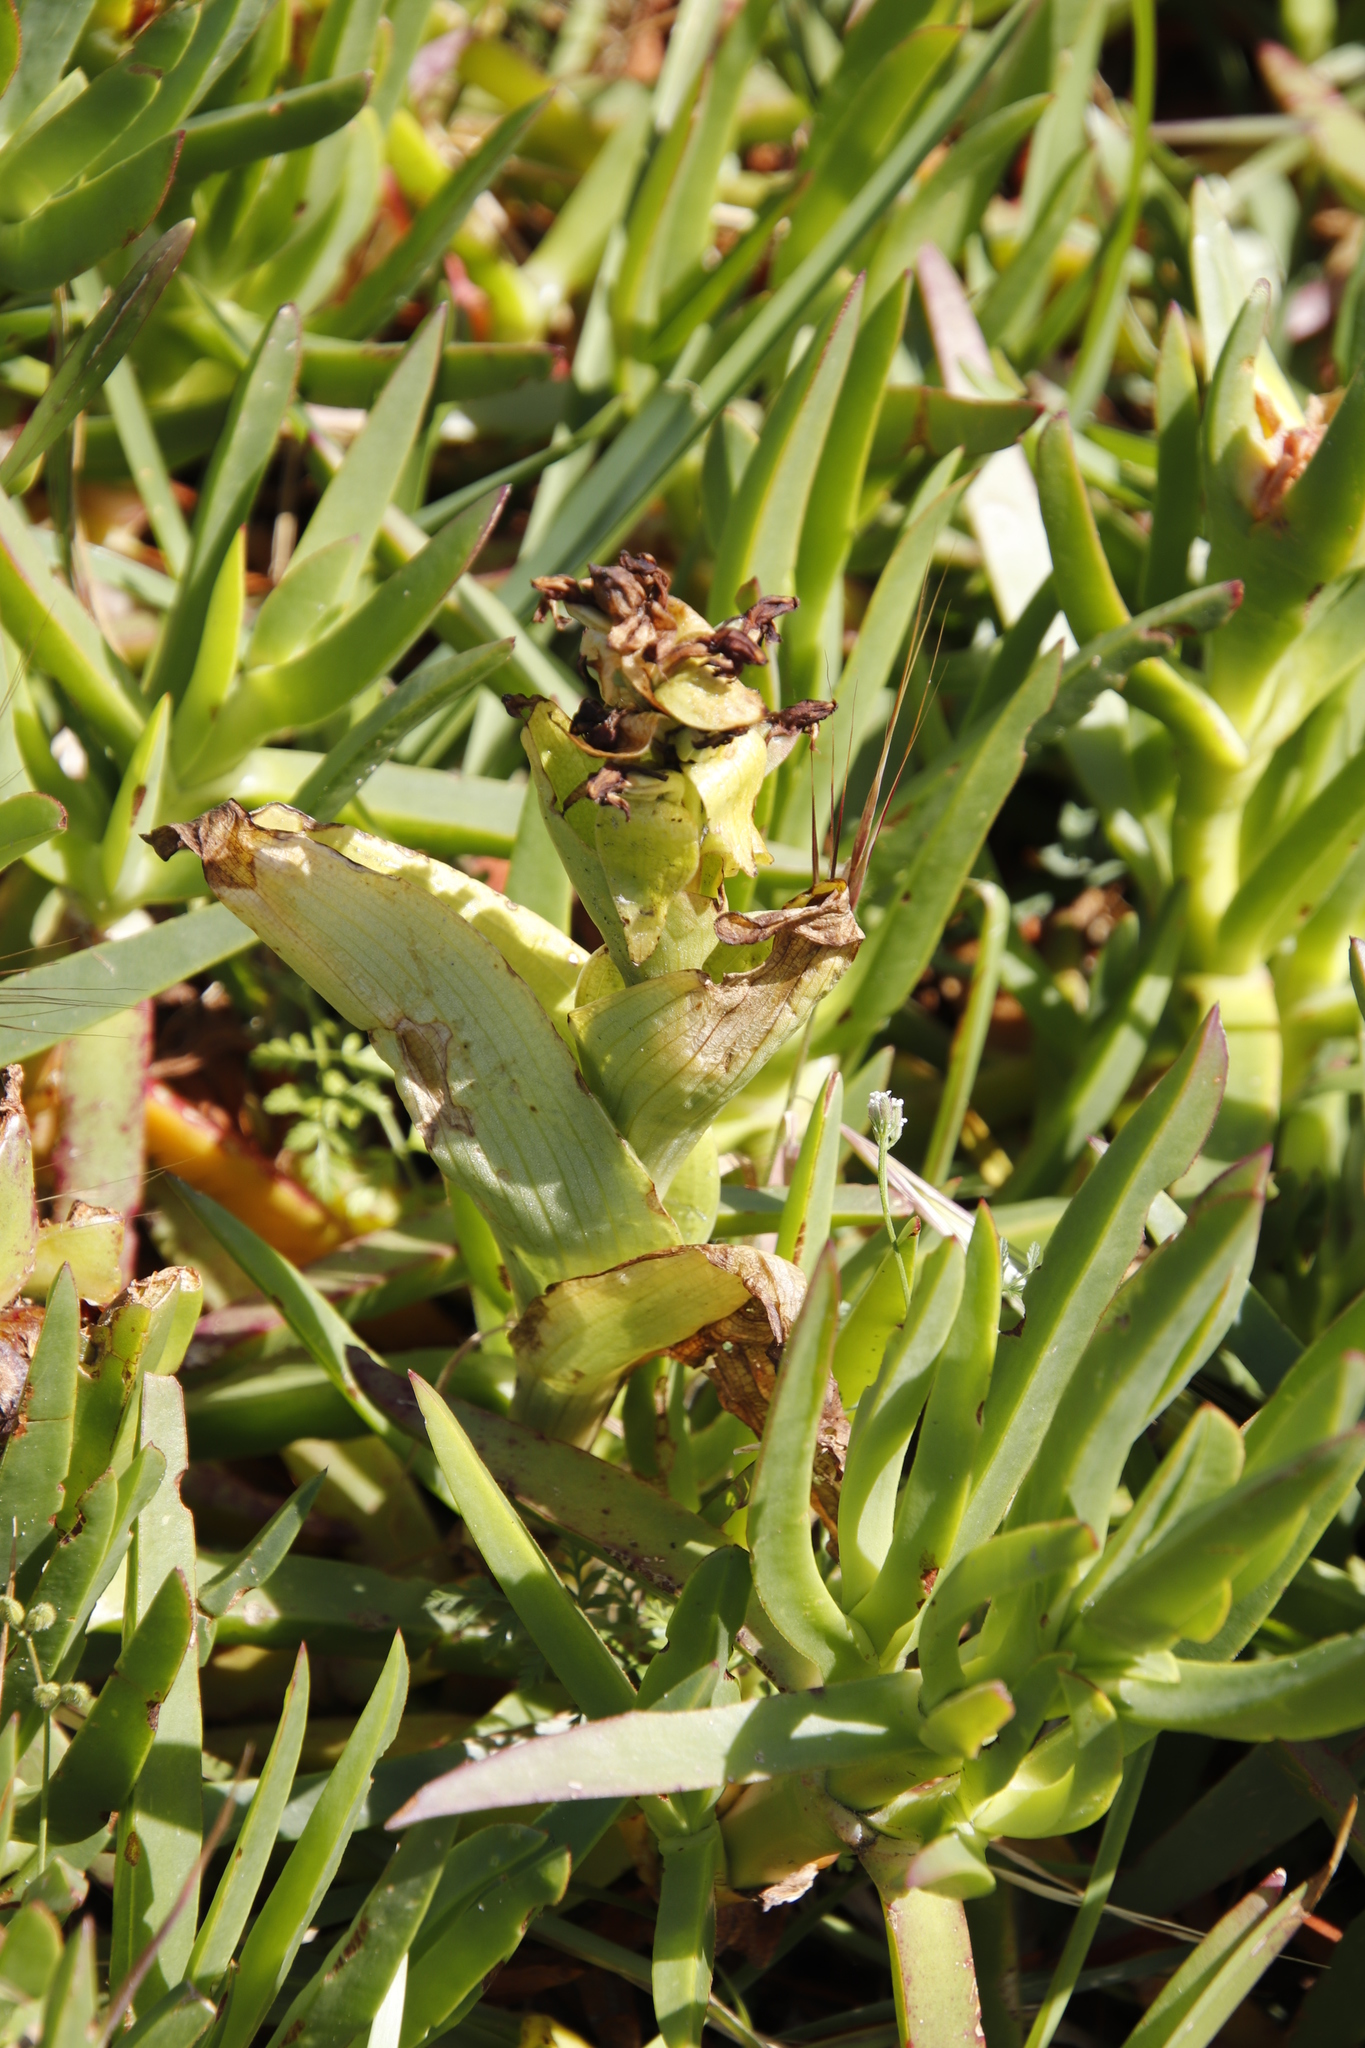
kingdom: Plantae
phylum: Tracheophyta
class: Liliopsida
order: Asparagales
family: Orchidaceae
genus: Satyrium
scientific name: Satyrium odorum
